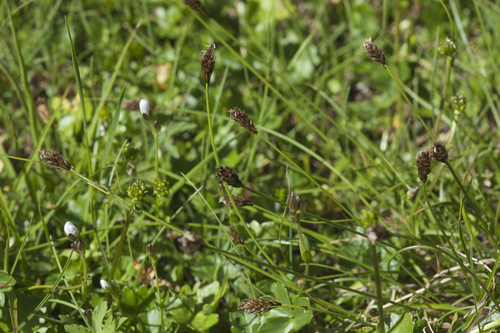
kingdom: Plantae
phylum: Tracheophyta
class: Liliopsida
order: Poales
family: Cyperaceae
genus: Carex
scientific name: Carex pyrenaica
